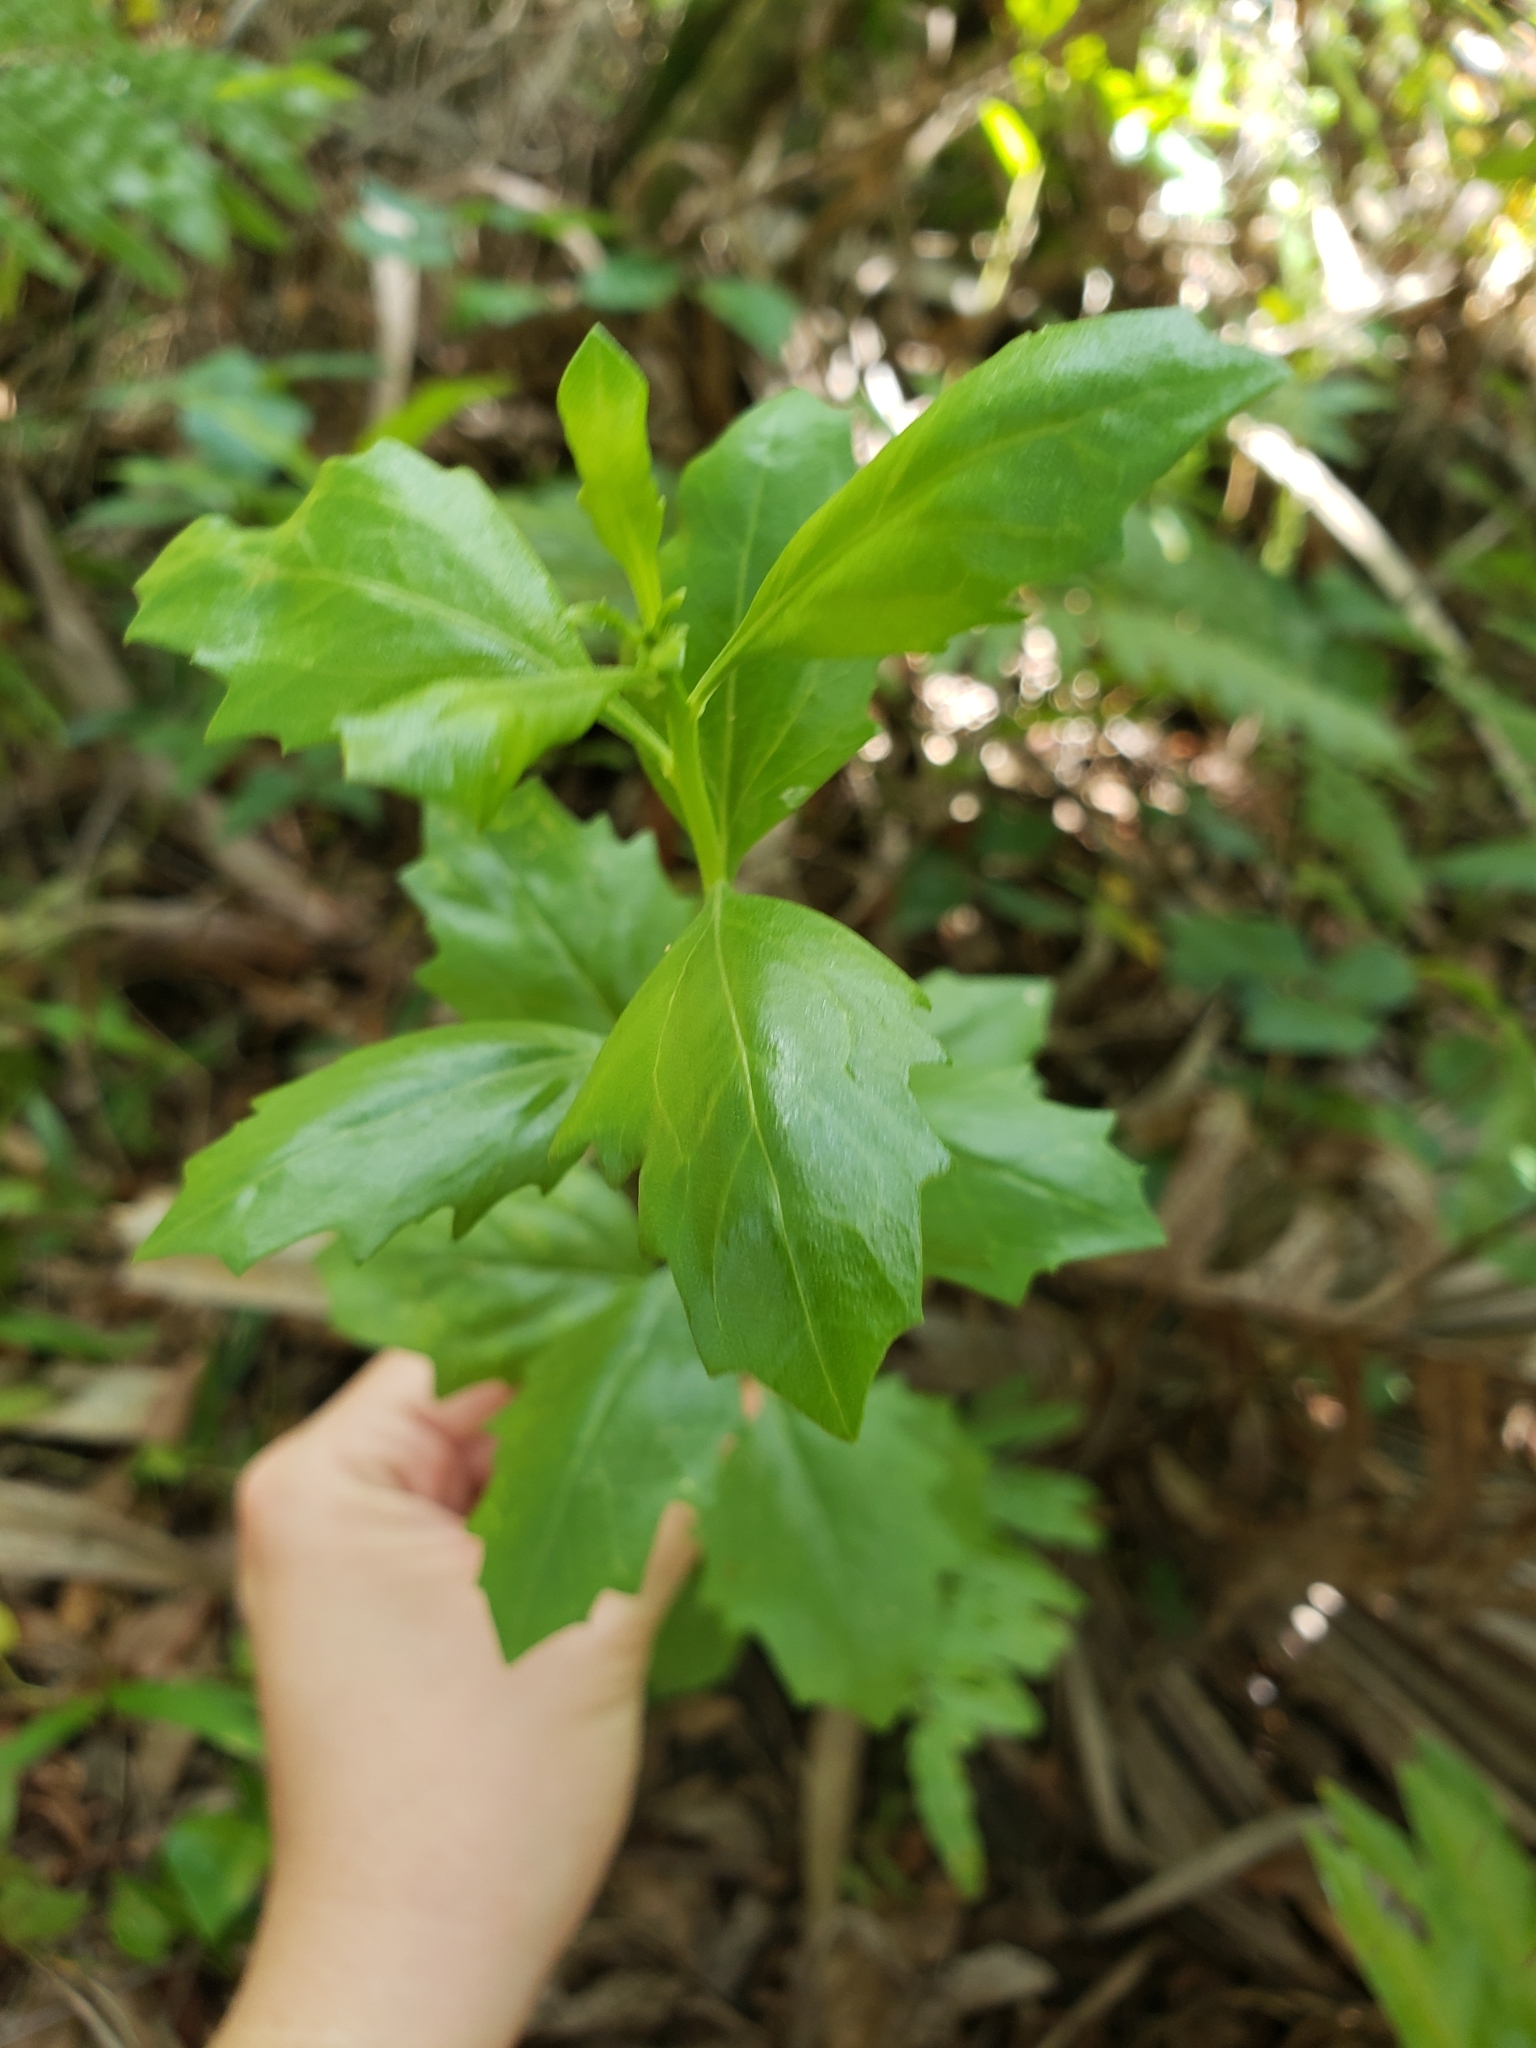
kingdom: Plantae
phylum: Tracheophyta
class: Magnoliopsida
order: Asterales
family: Asteraceae
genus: Baccharis
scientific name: Baccharis halimifolia
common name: Eastern baccharis
